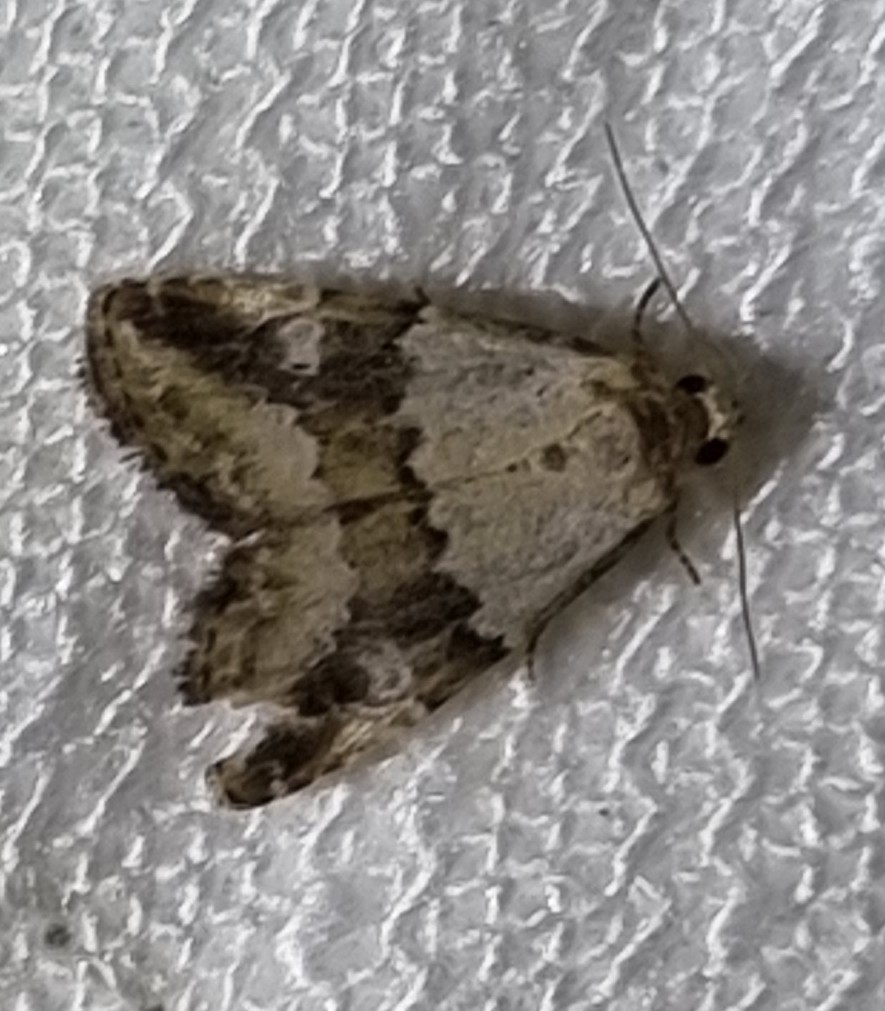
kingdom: Animalia
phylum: Arthropoda
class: Insecta
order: Lepidoptera
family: Noctuidae
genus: Maliattha
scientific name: Maliattha amorpha
